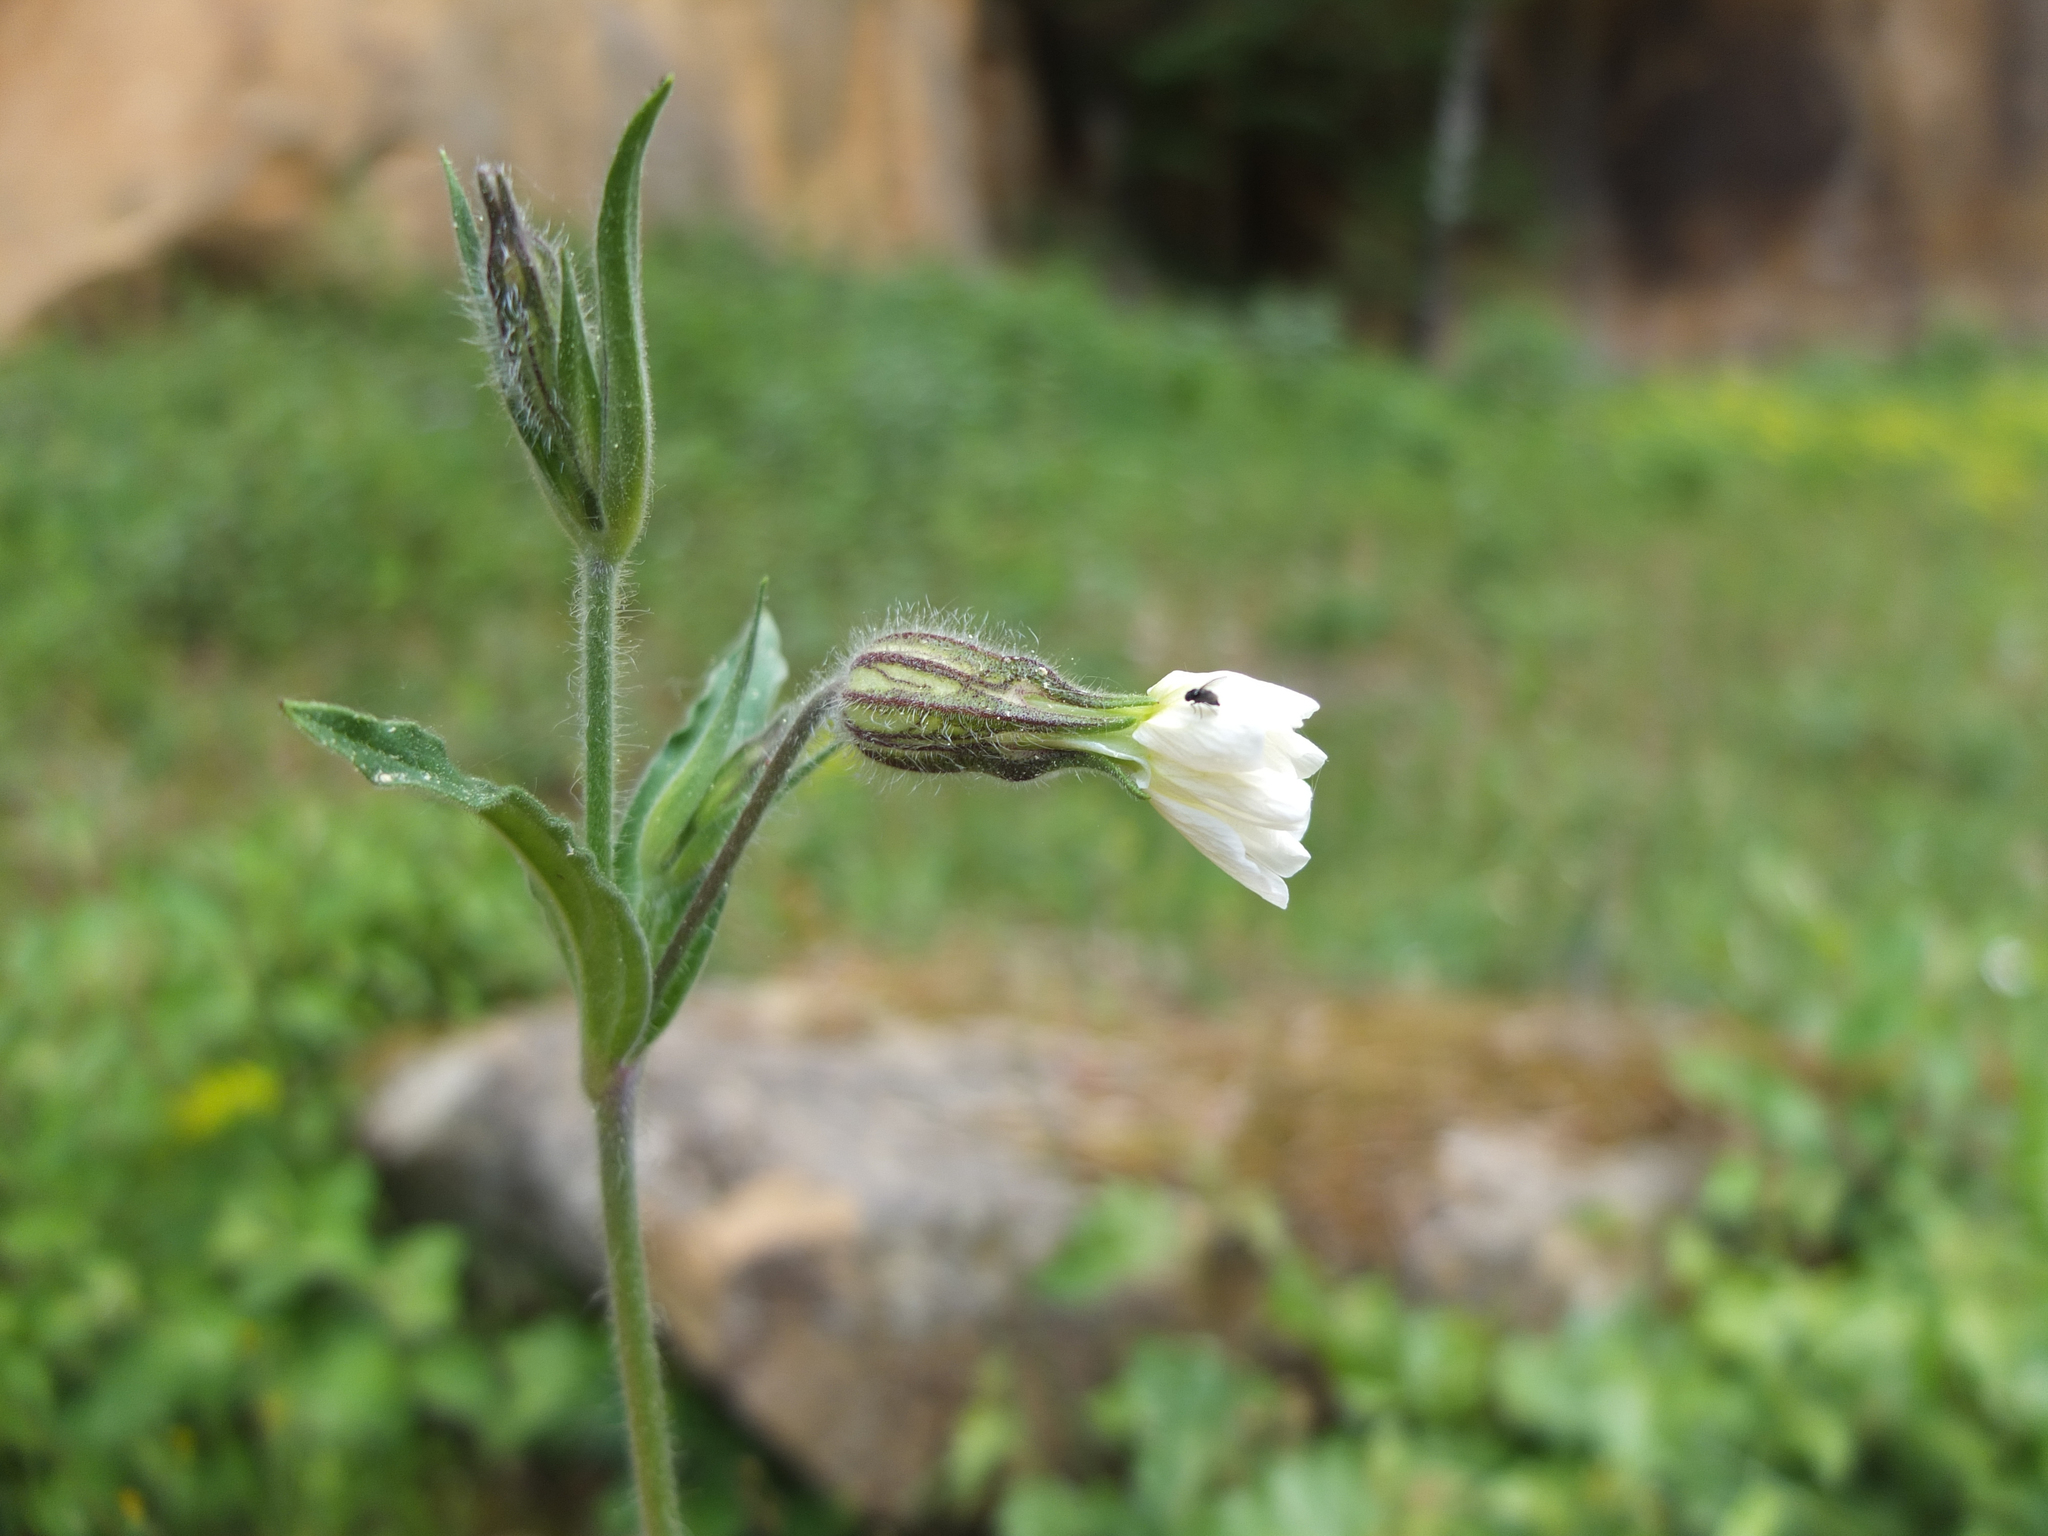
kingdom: Plantae
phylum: Tracheophyta
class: Magnoliopsida
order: Caryophyllales
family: Caryophyllaceae
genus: Silene
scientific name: Silene latifolia
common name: White campion
